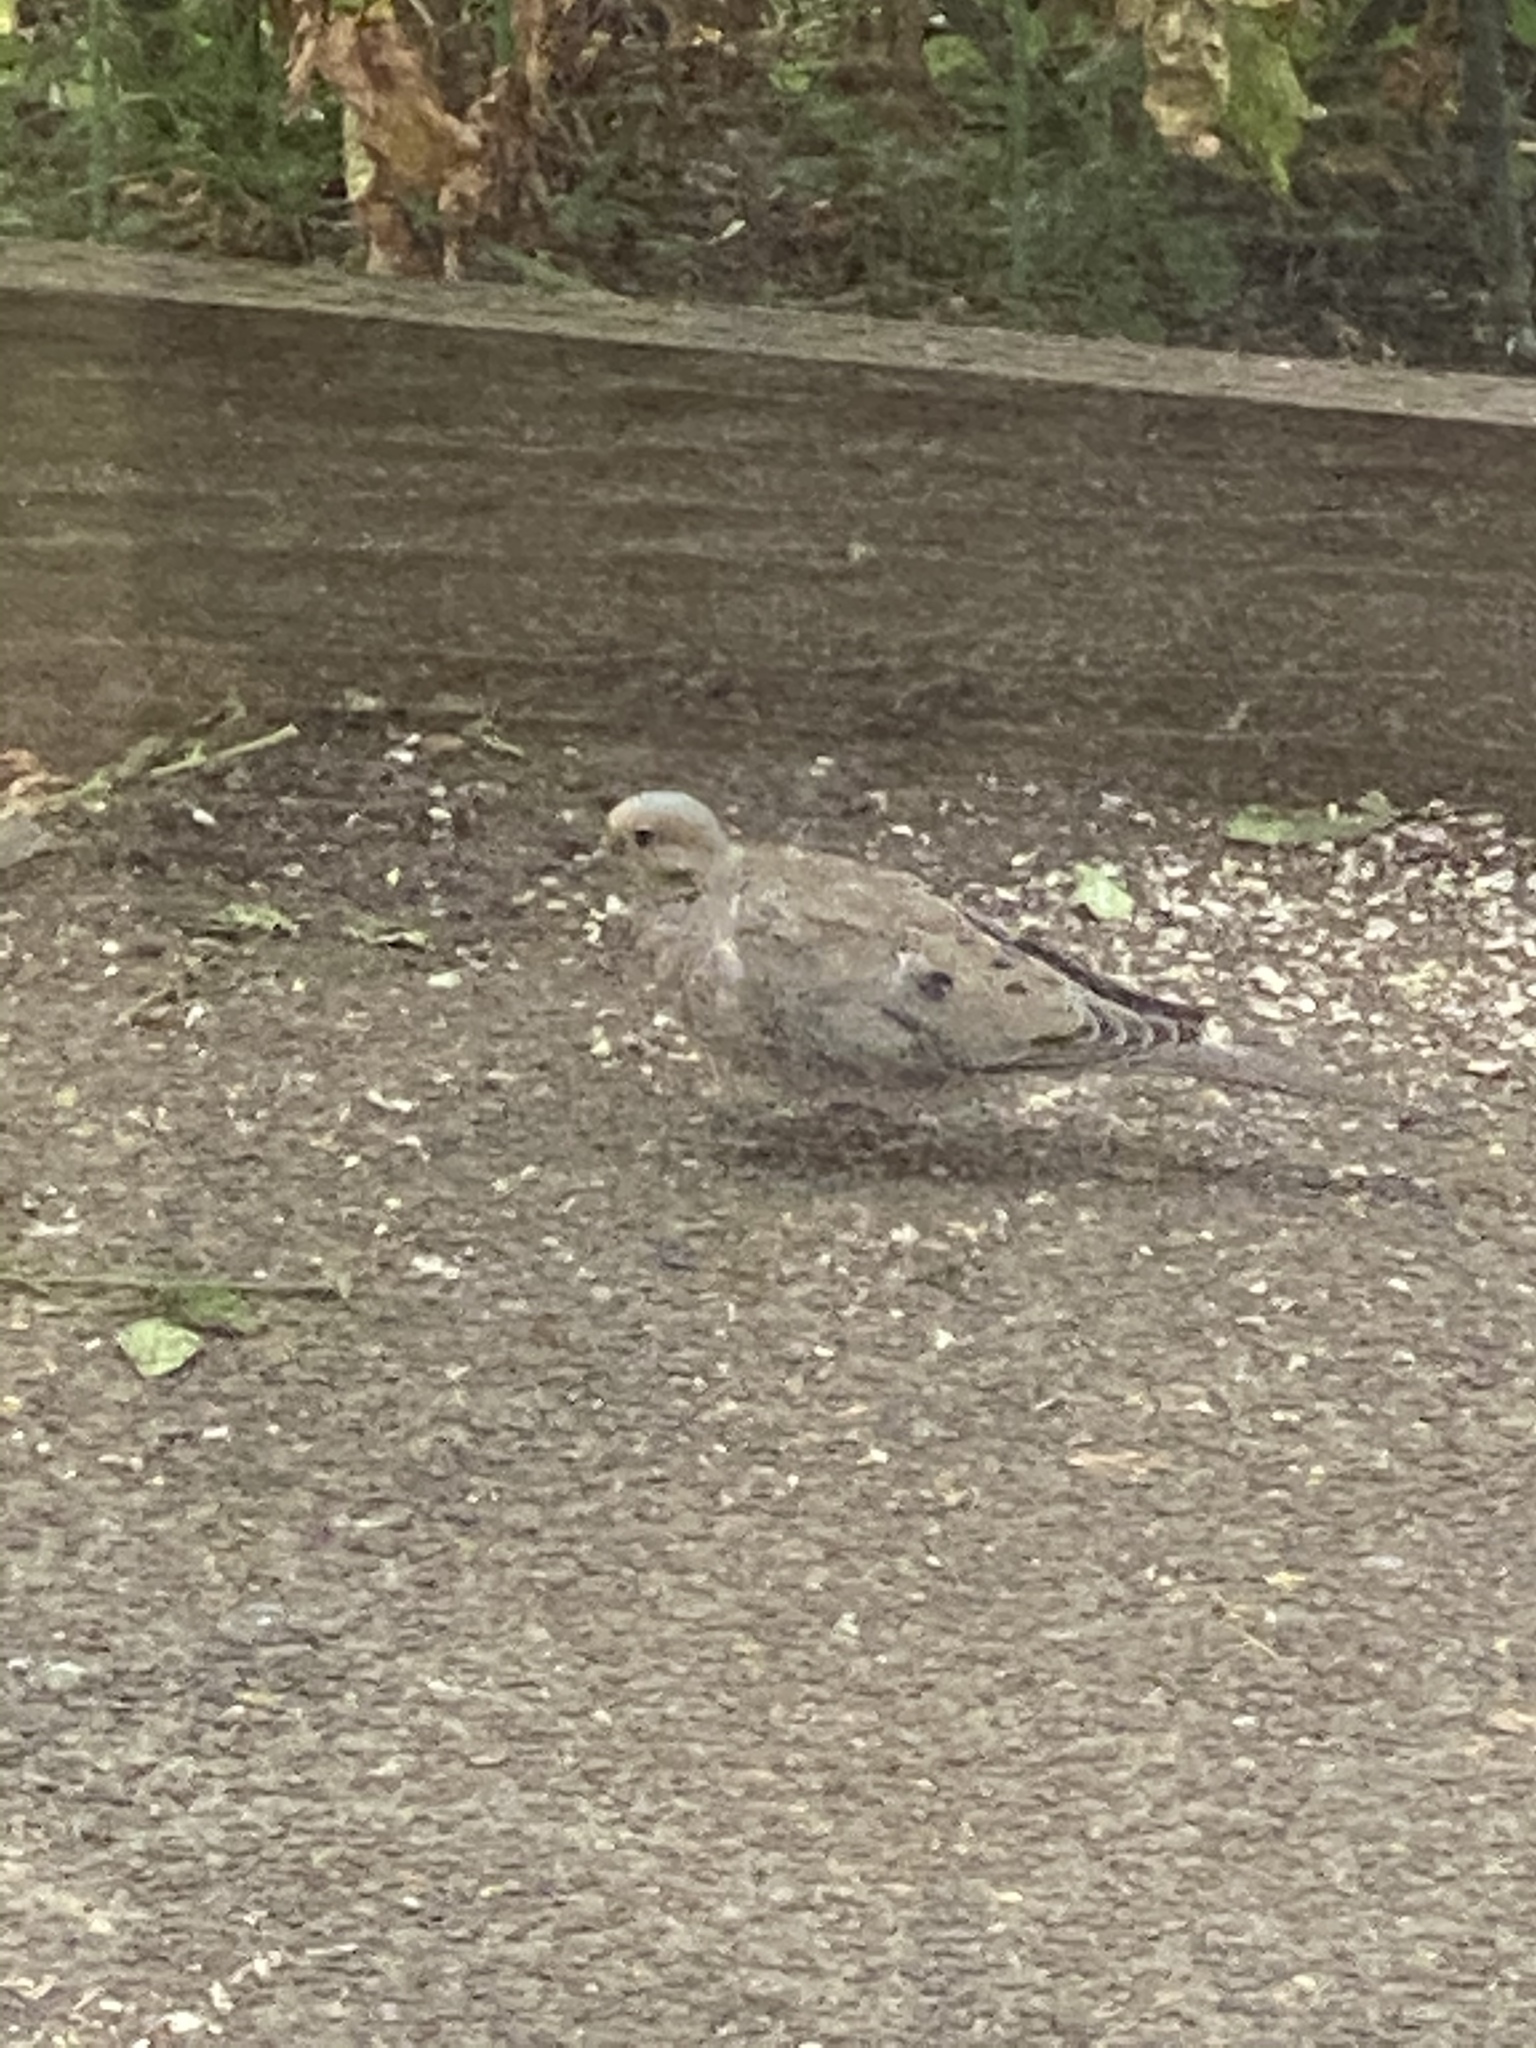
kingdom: Animalia
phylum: Chordata
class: Aves
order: Columbiformes
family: Columbidae
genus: Zenaida
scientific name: Zenaida macroura
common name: Mourning dove
